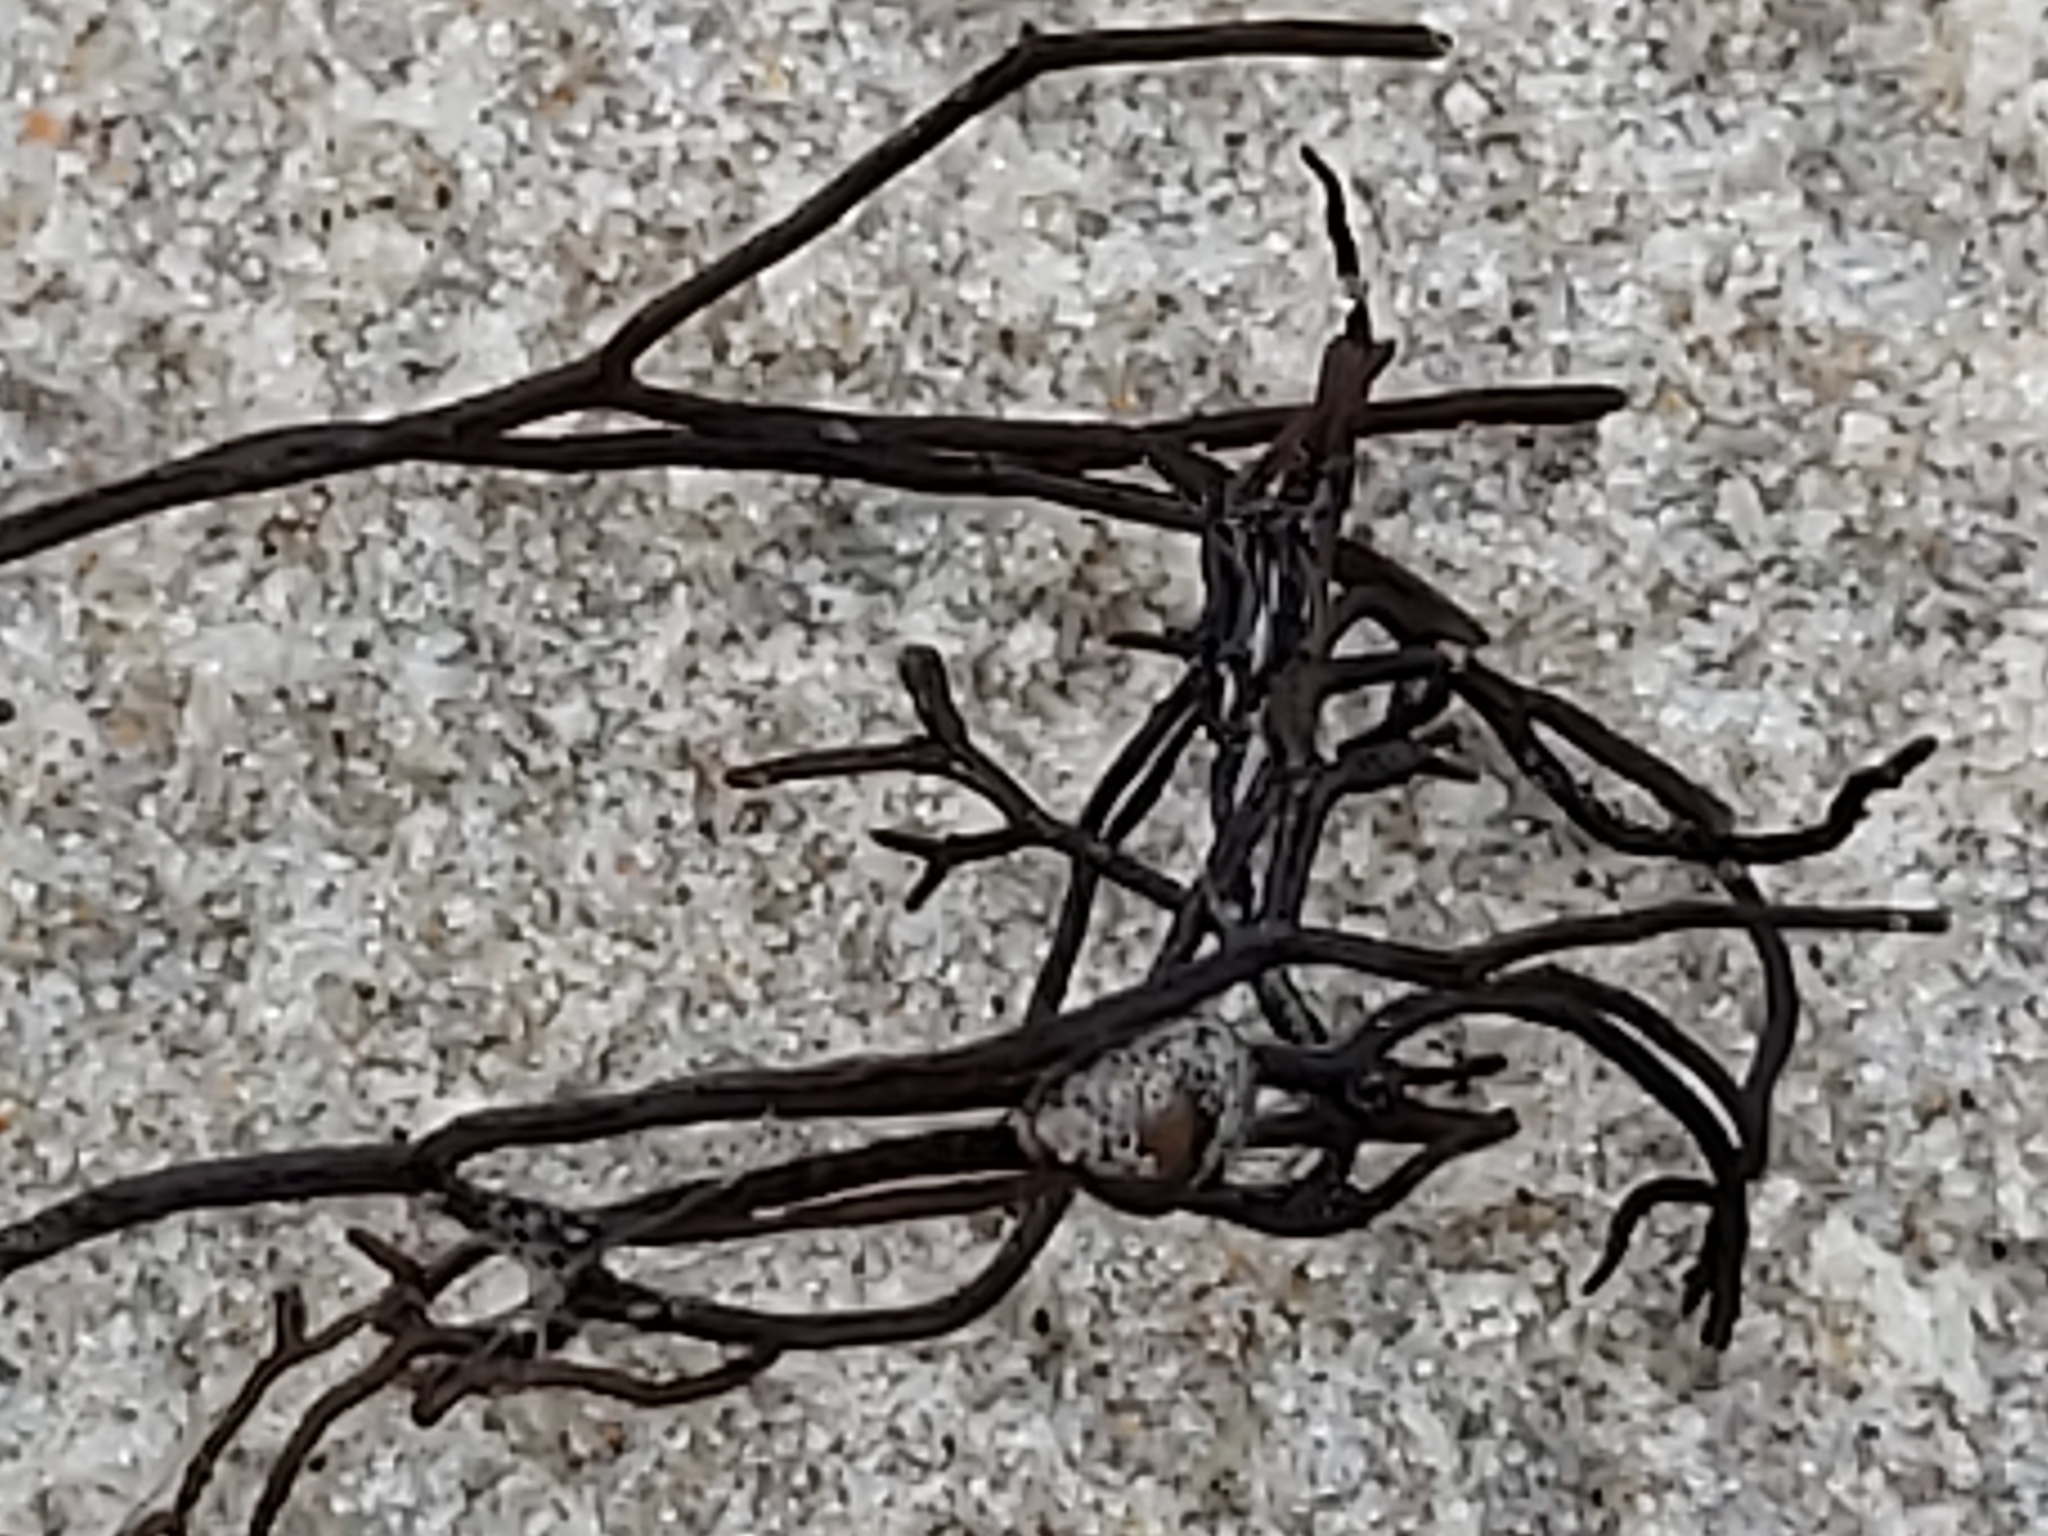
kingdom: Plantae
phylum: Rhodophyta
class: Florideophyceae
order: Gigartinales
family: Furcellariaceae
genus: Furcellaria
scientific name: Furcellaria lumbricalis
